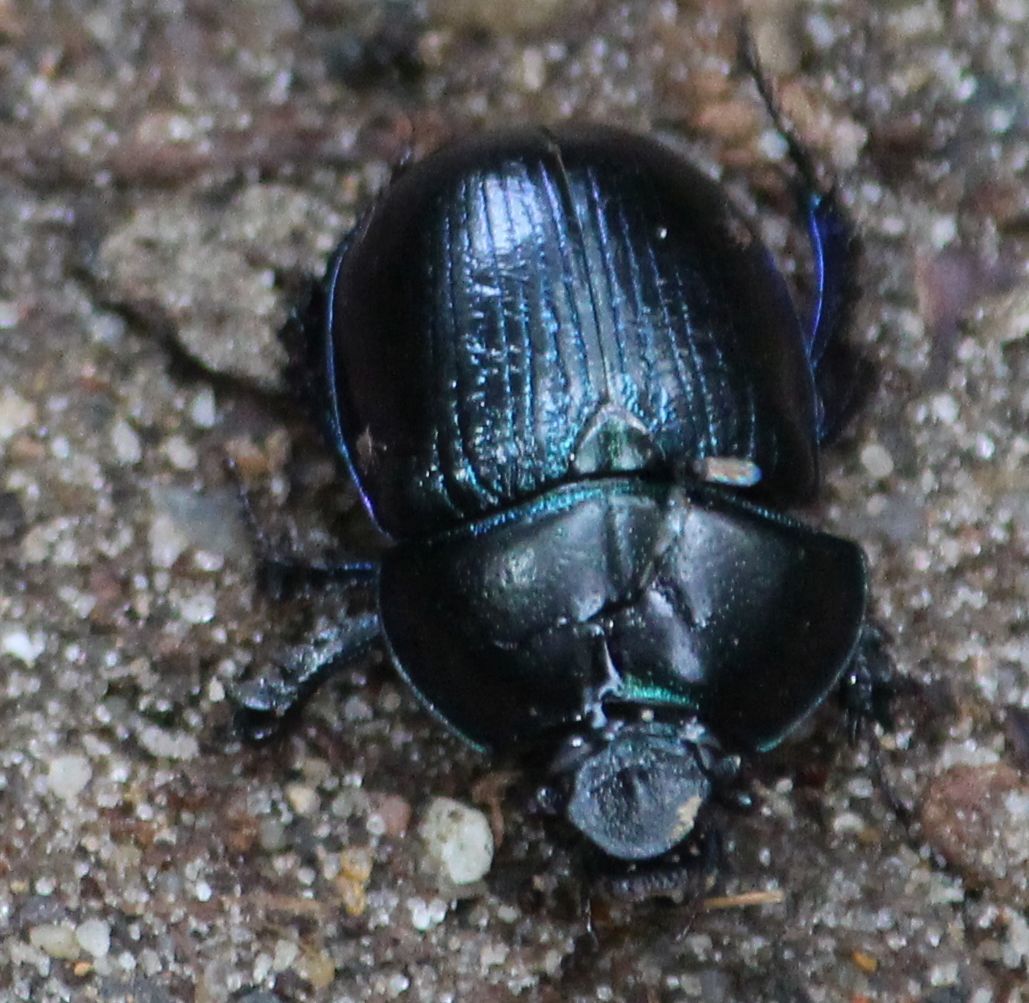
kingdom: Animalia
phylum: Arthropoda
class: Insecta
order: Coleoptera
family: Geotrupidae
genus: Anoplotrupes
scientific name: Anoplotrupes stercorosus
